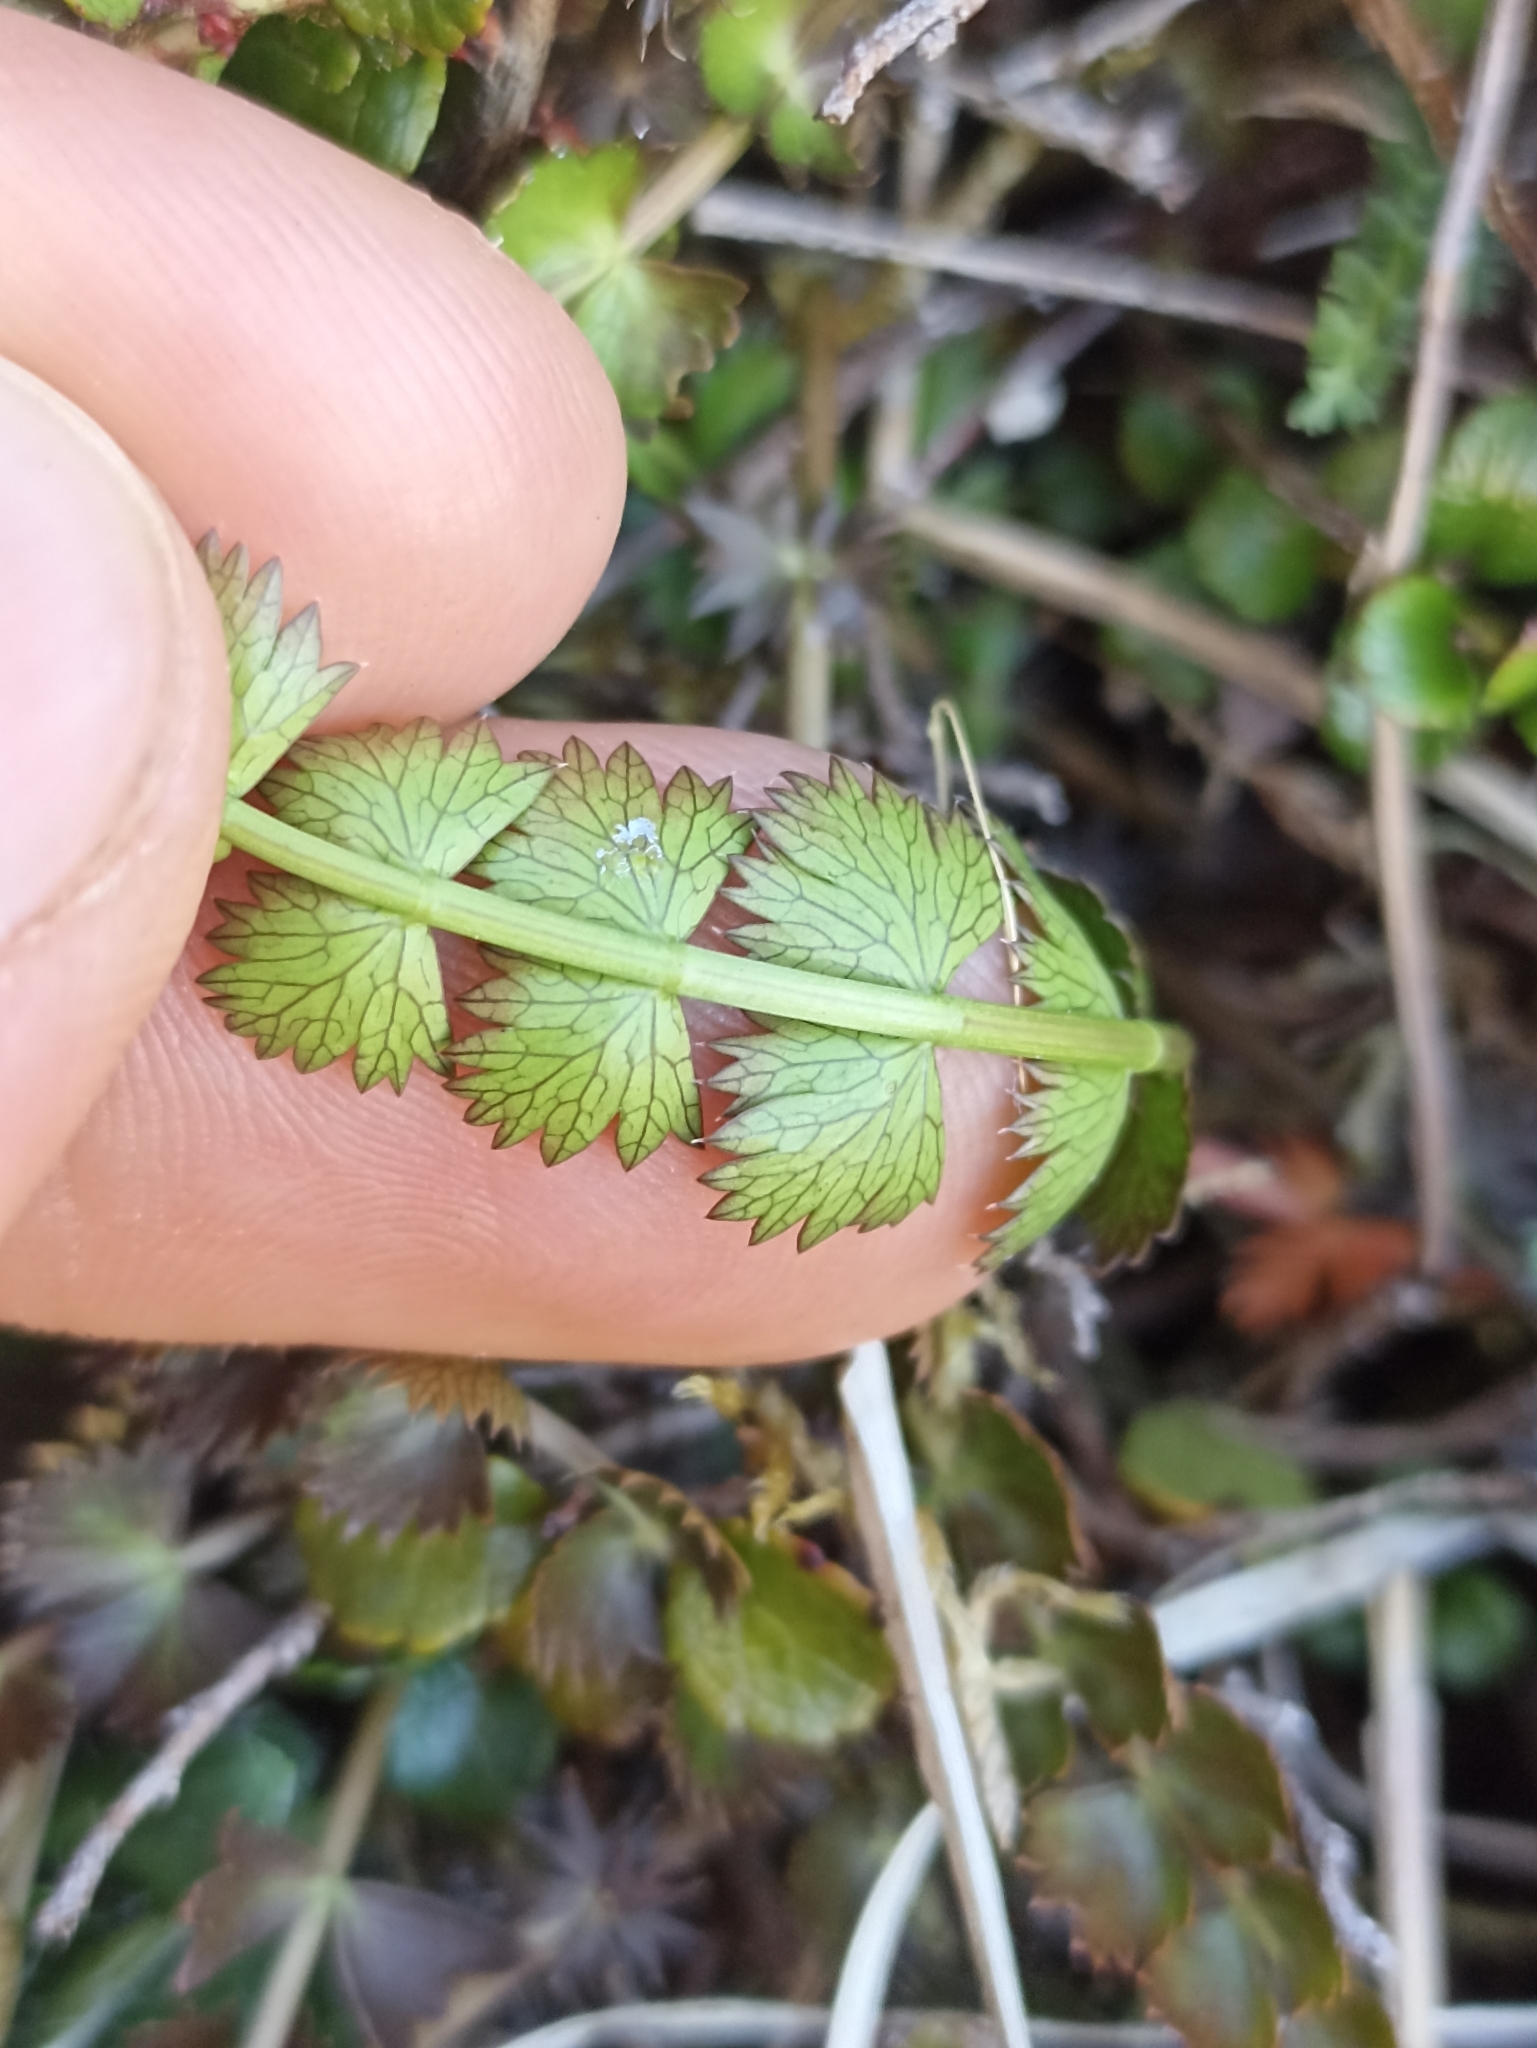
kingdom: Plantae
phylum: Tracheophyta
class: Magnoliopsida
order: Apiales
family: Apiaceae
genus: Anisotome
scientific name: Anisotome aromatica
